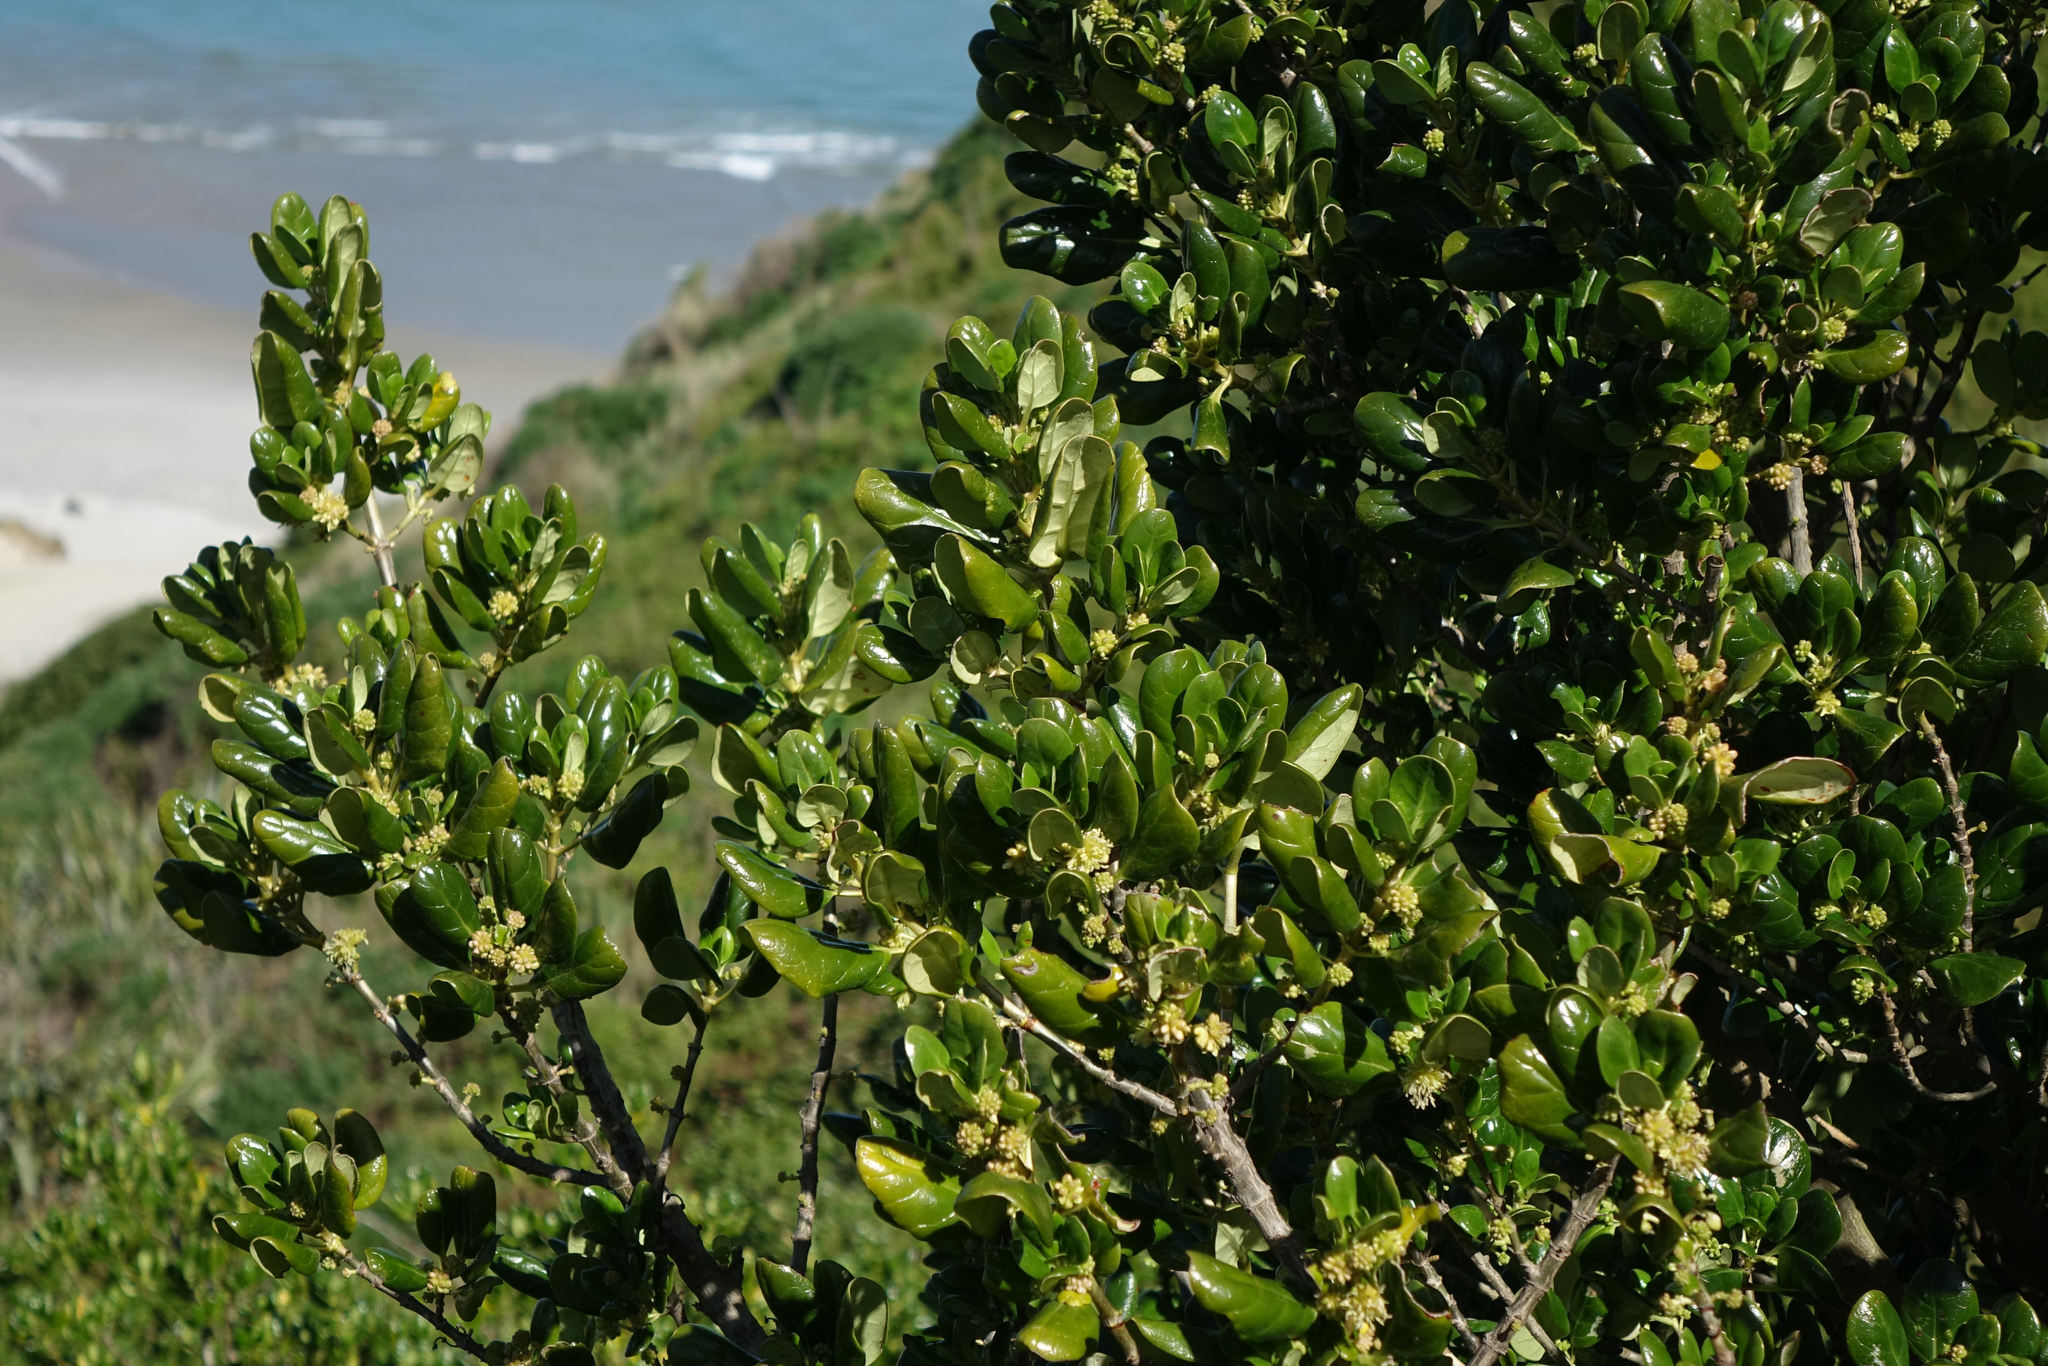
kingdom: Plantae
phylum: Tracheophyta
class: Magnoliopsida
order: Gentianales
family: Rubiaceae
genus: Coprosma
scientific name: Coprosma repens
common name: Tree bedstraw
